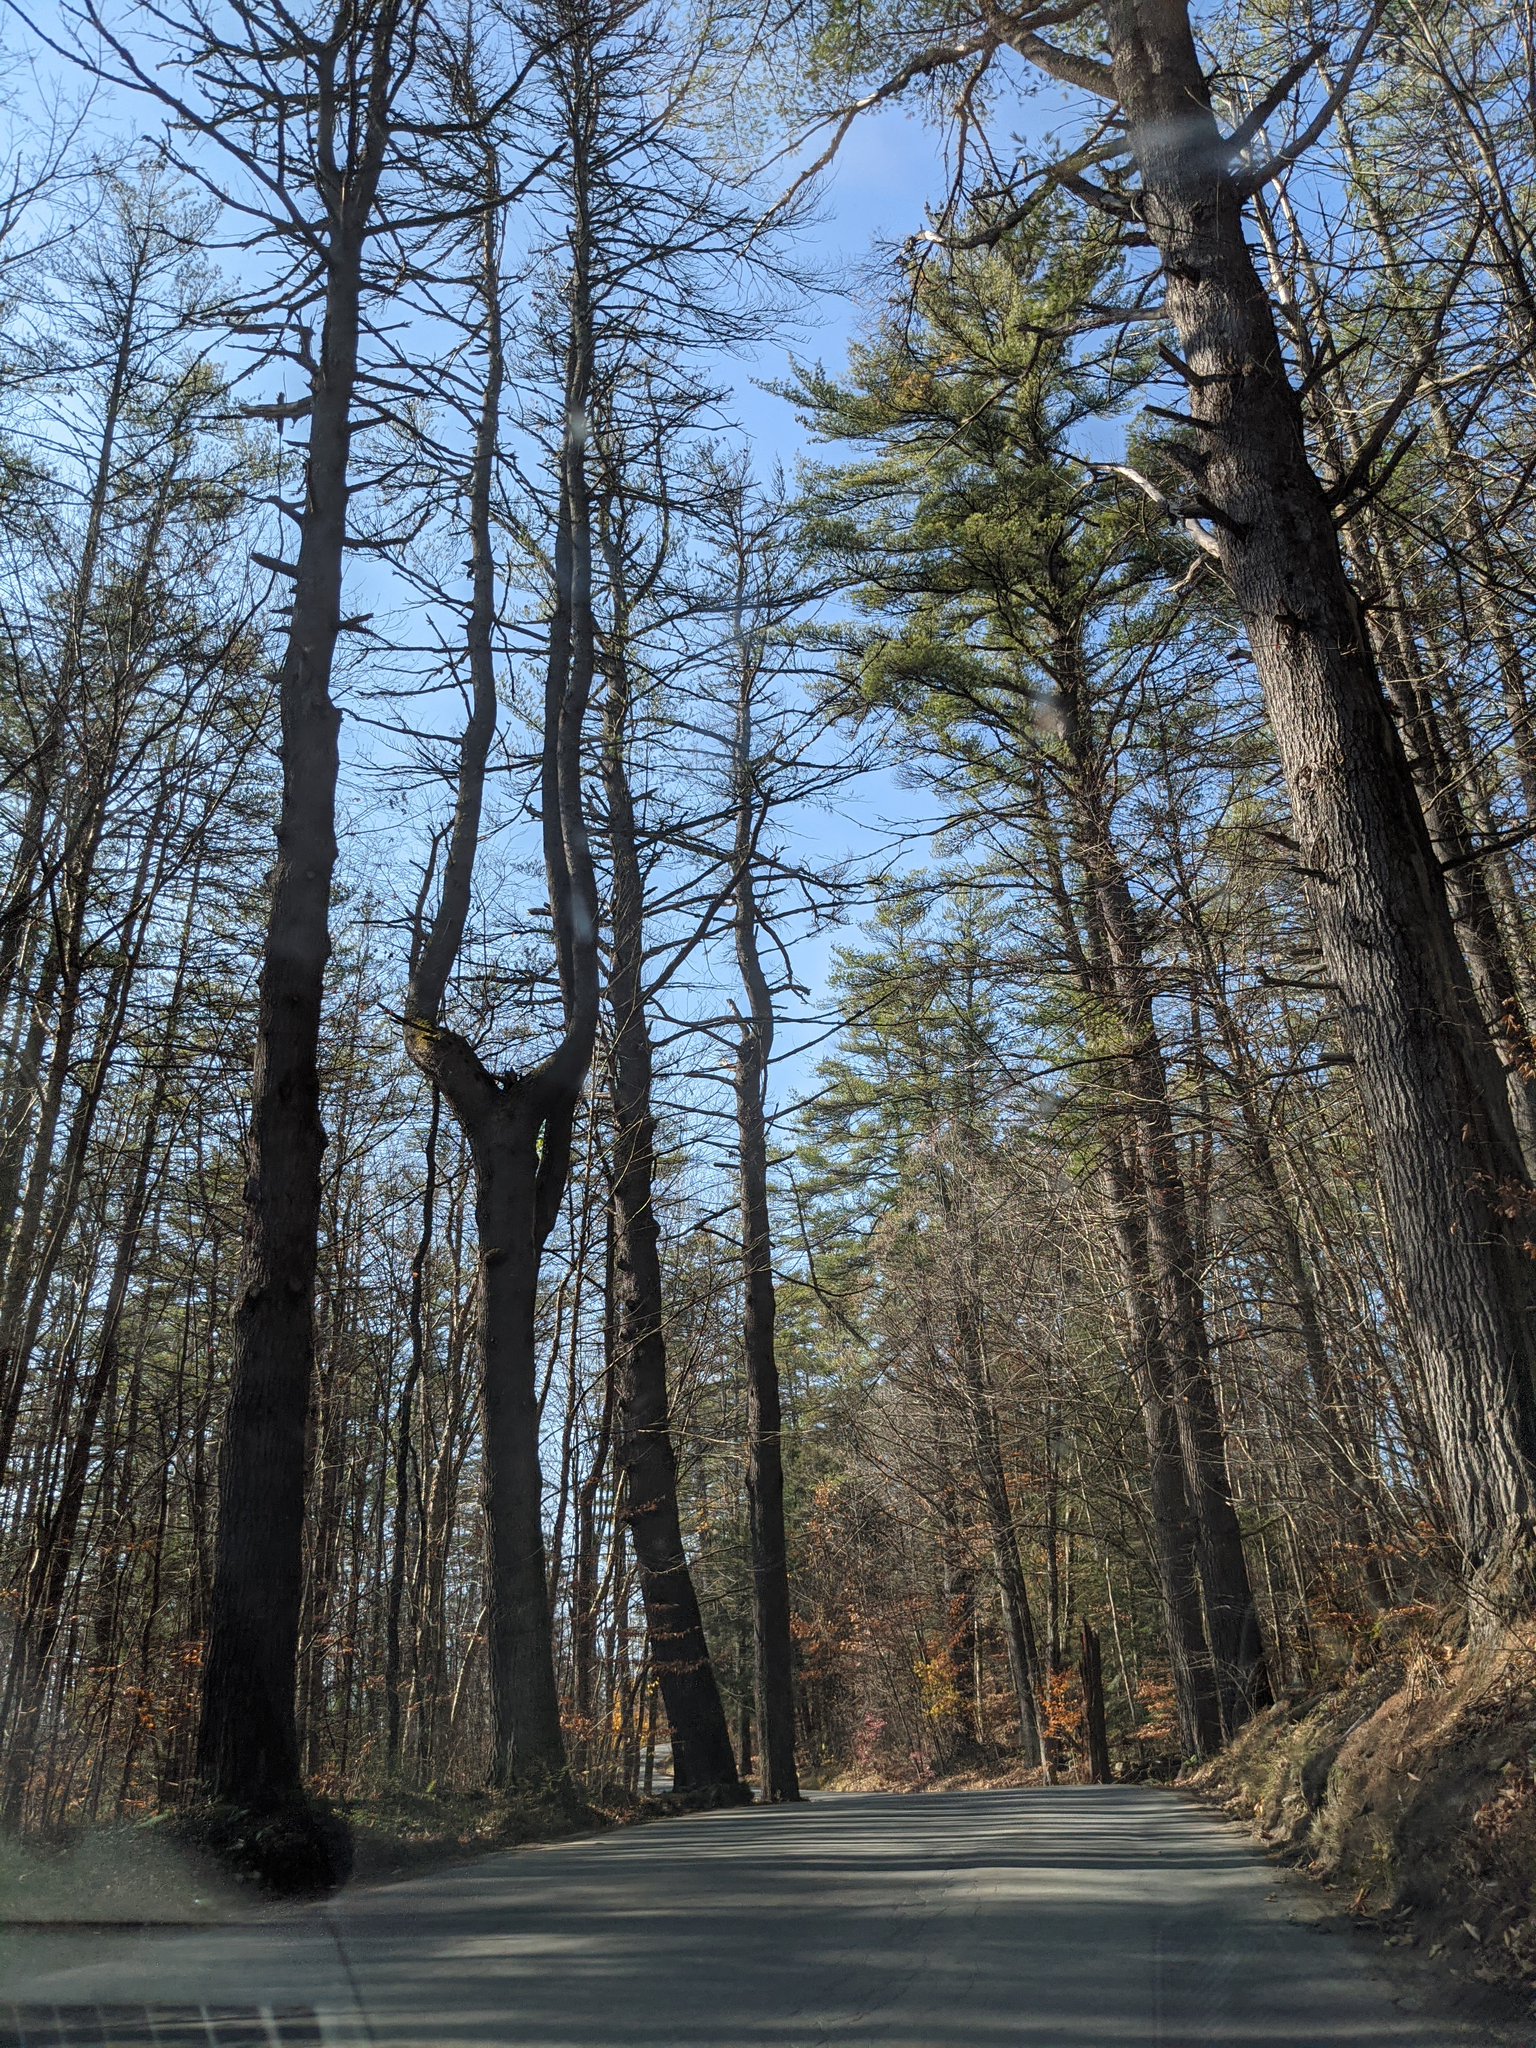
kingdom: Plantae
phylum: Tracheophyta
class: Pinopsida
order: Pinales
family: Pinaceae
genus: Pinus
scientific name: Pinus strobus
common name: Weymouth pine
